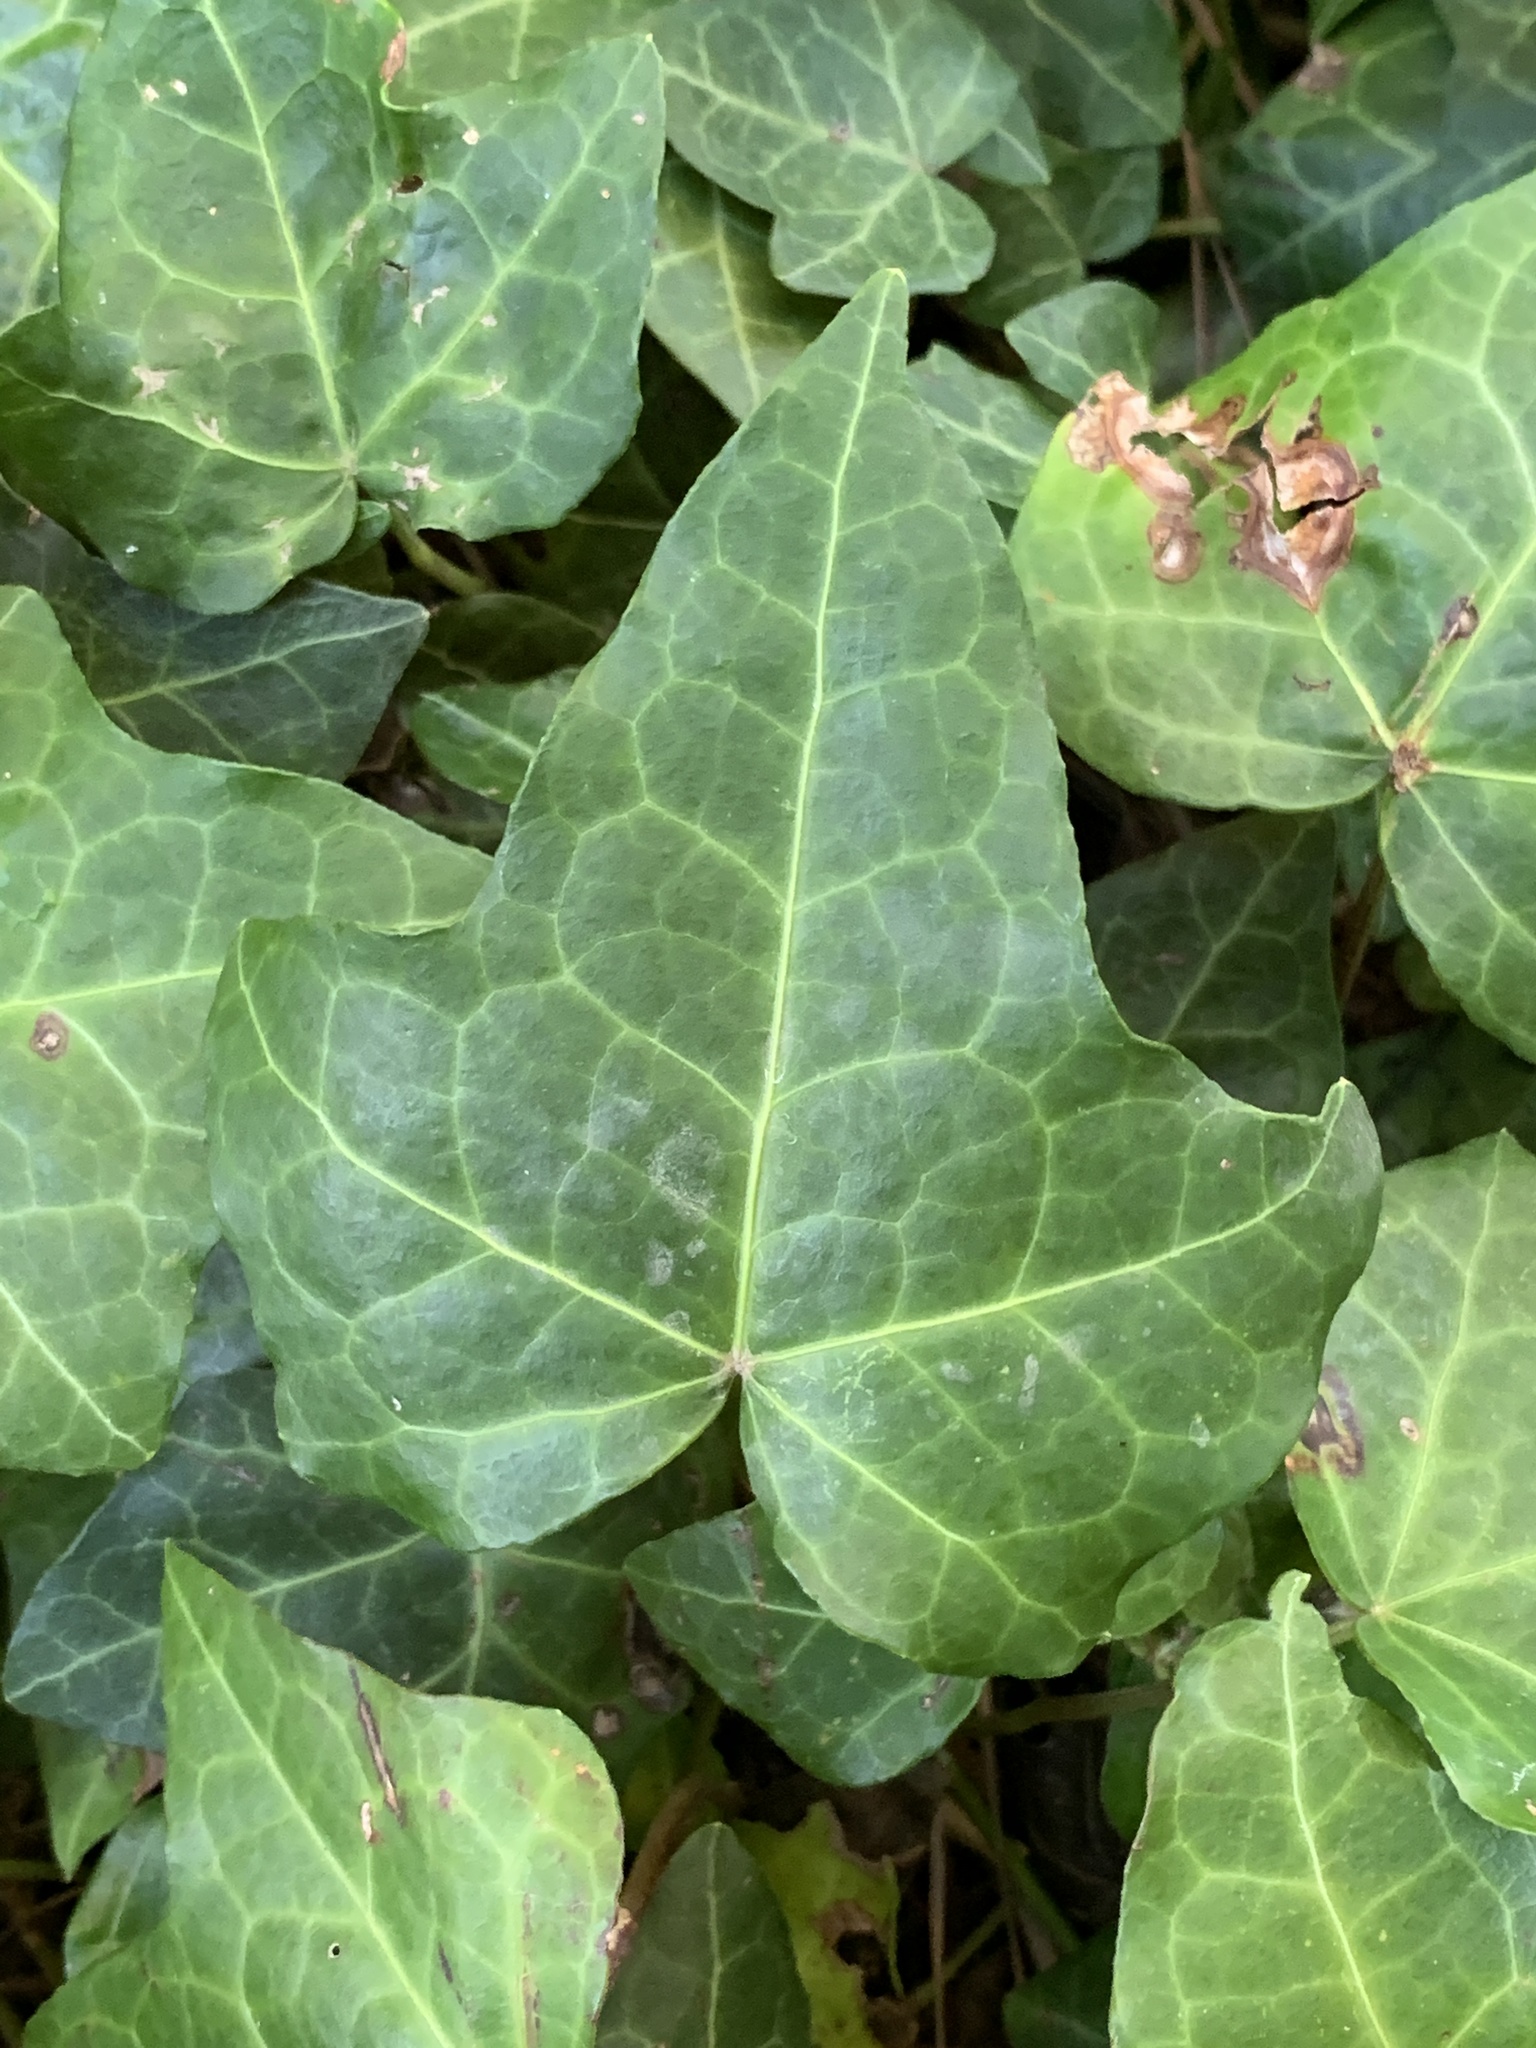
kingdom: Plantae
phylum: Tracheophyta
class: Magnoliopsida
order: Apiales
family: Araliaceae
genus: Hedera
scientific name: Hedera helix
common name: Ivy
